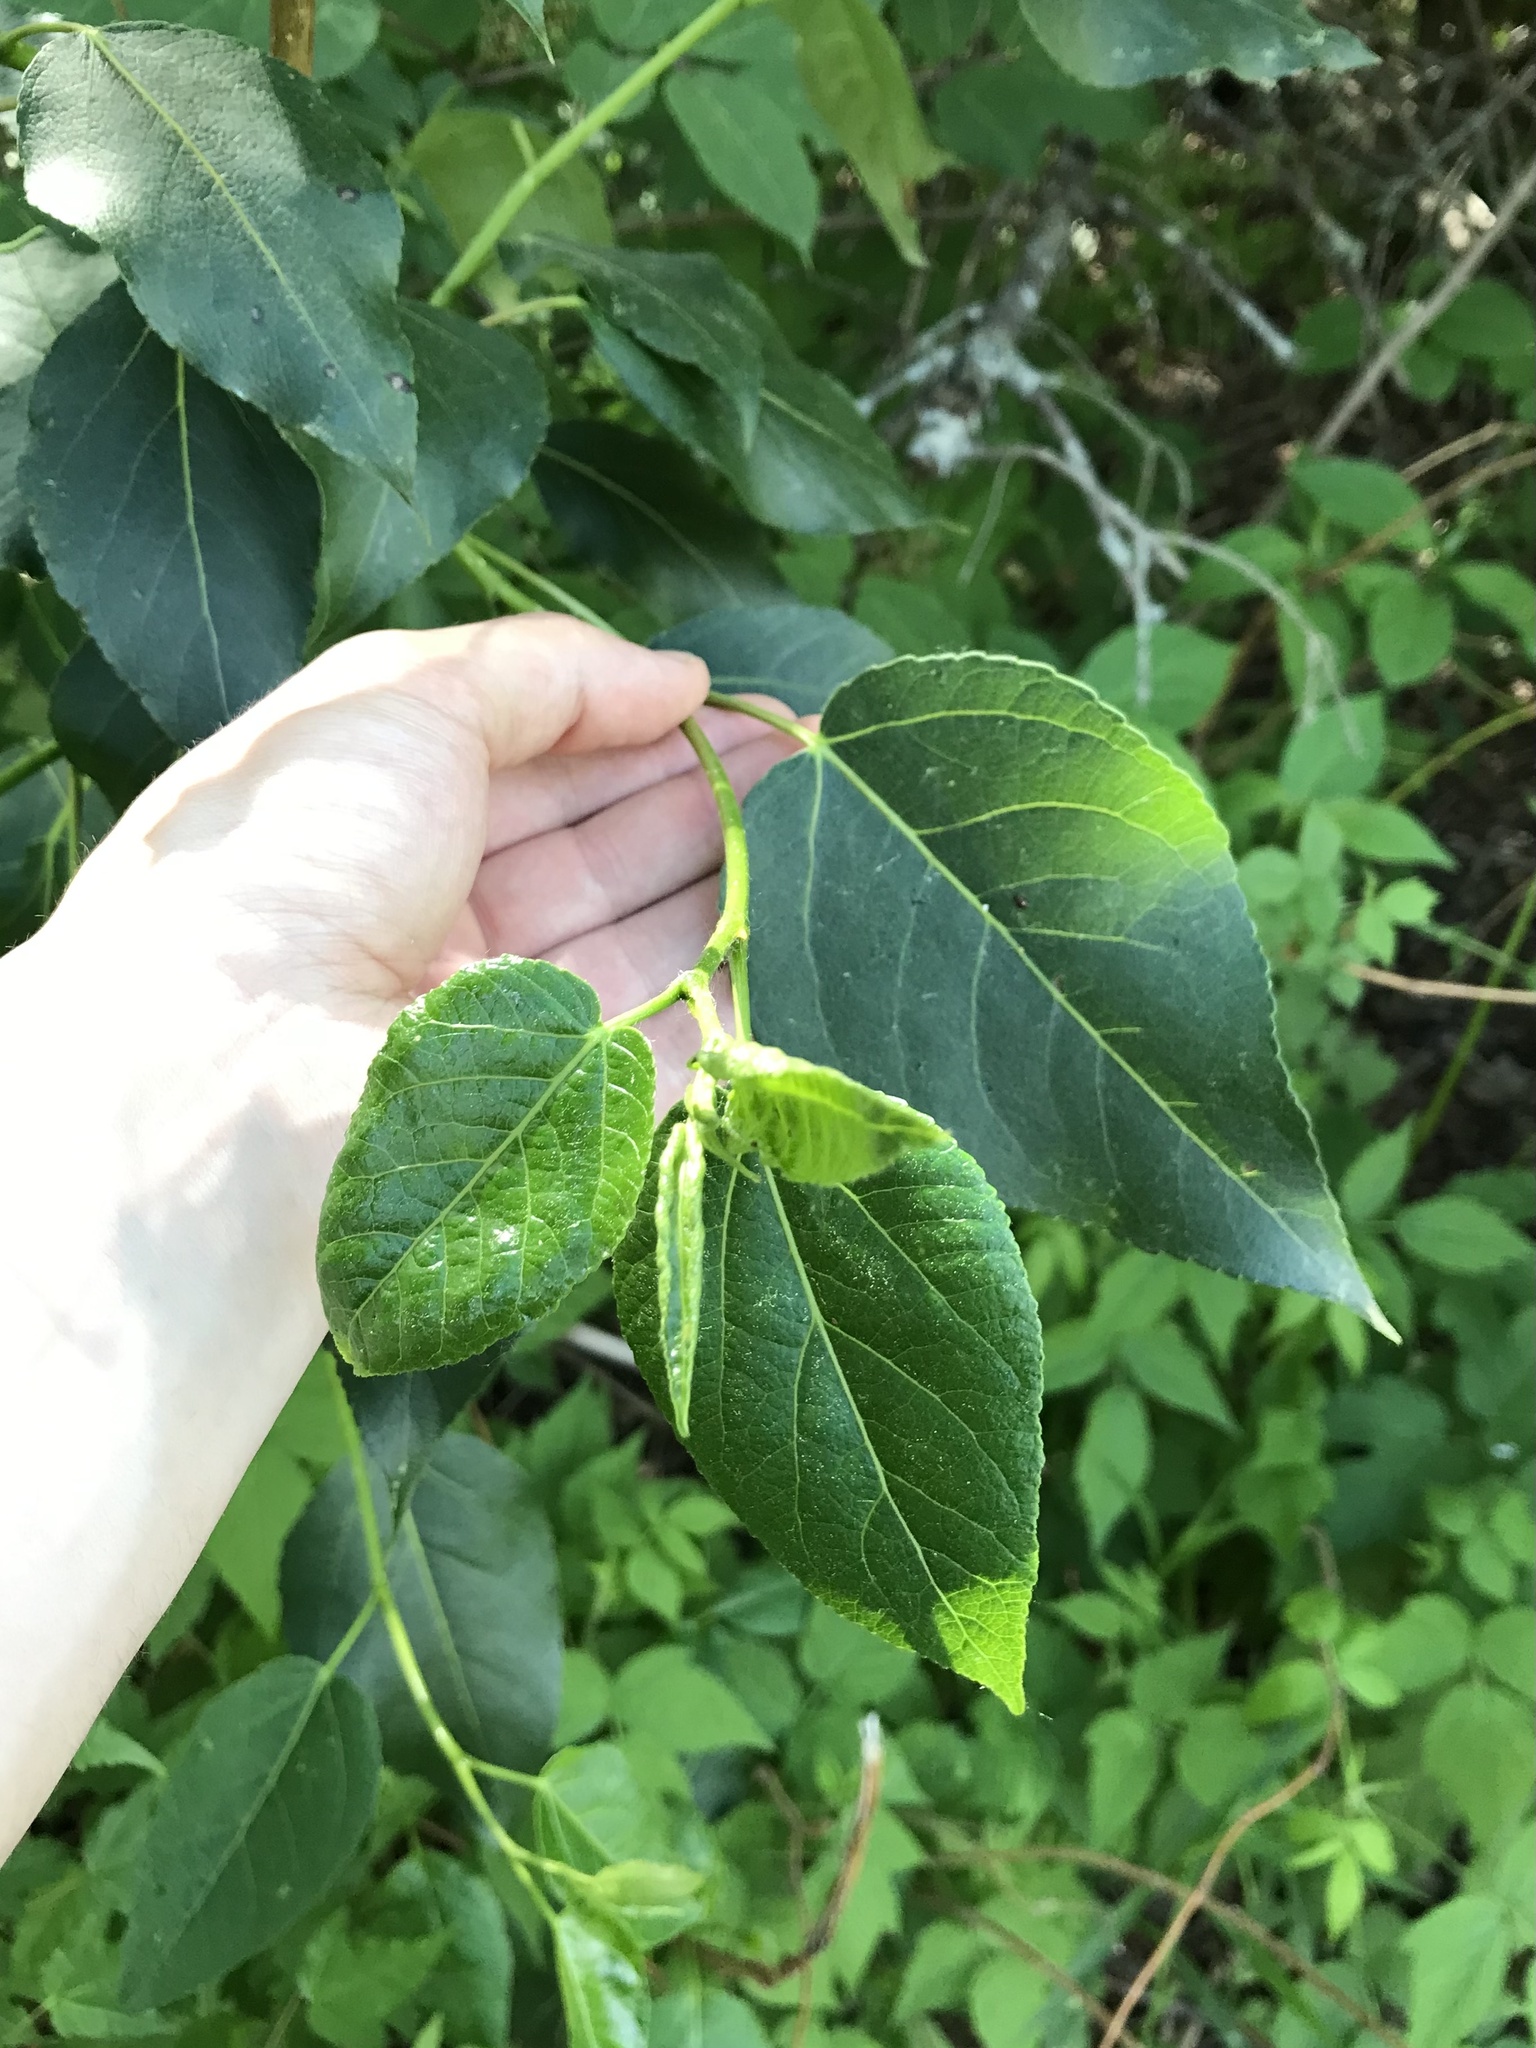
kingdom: Plantae
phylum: Tracheophyta
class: Magnoliopsida
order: Malpighiales
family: Salicaceae
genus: Populus
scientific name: Populus balsamifera
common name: Balsam poplar
